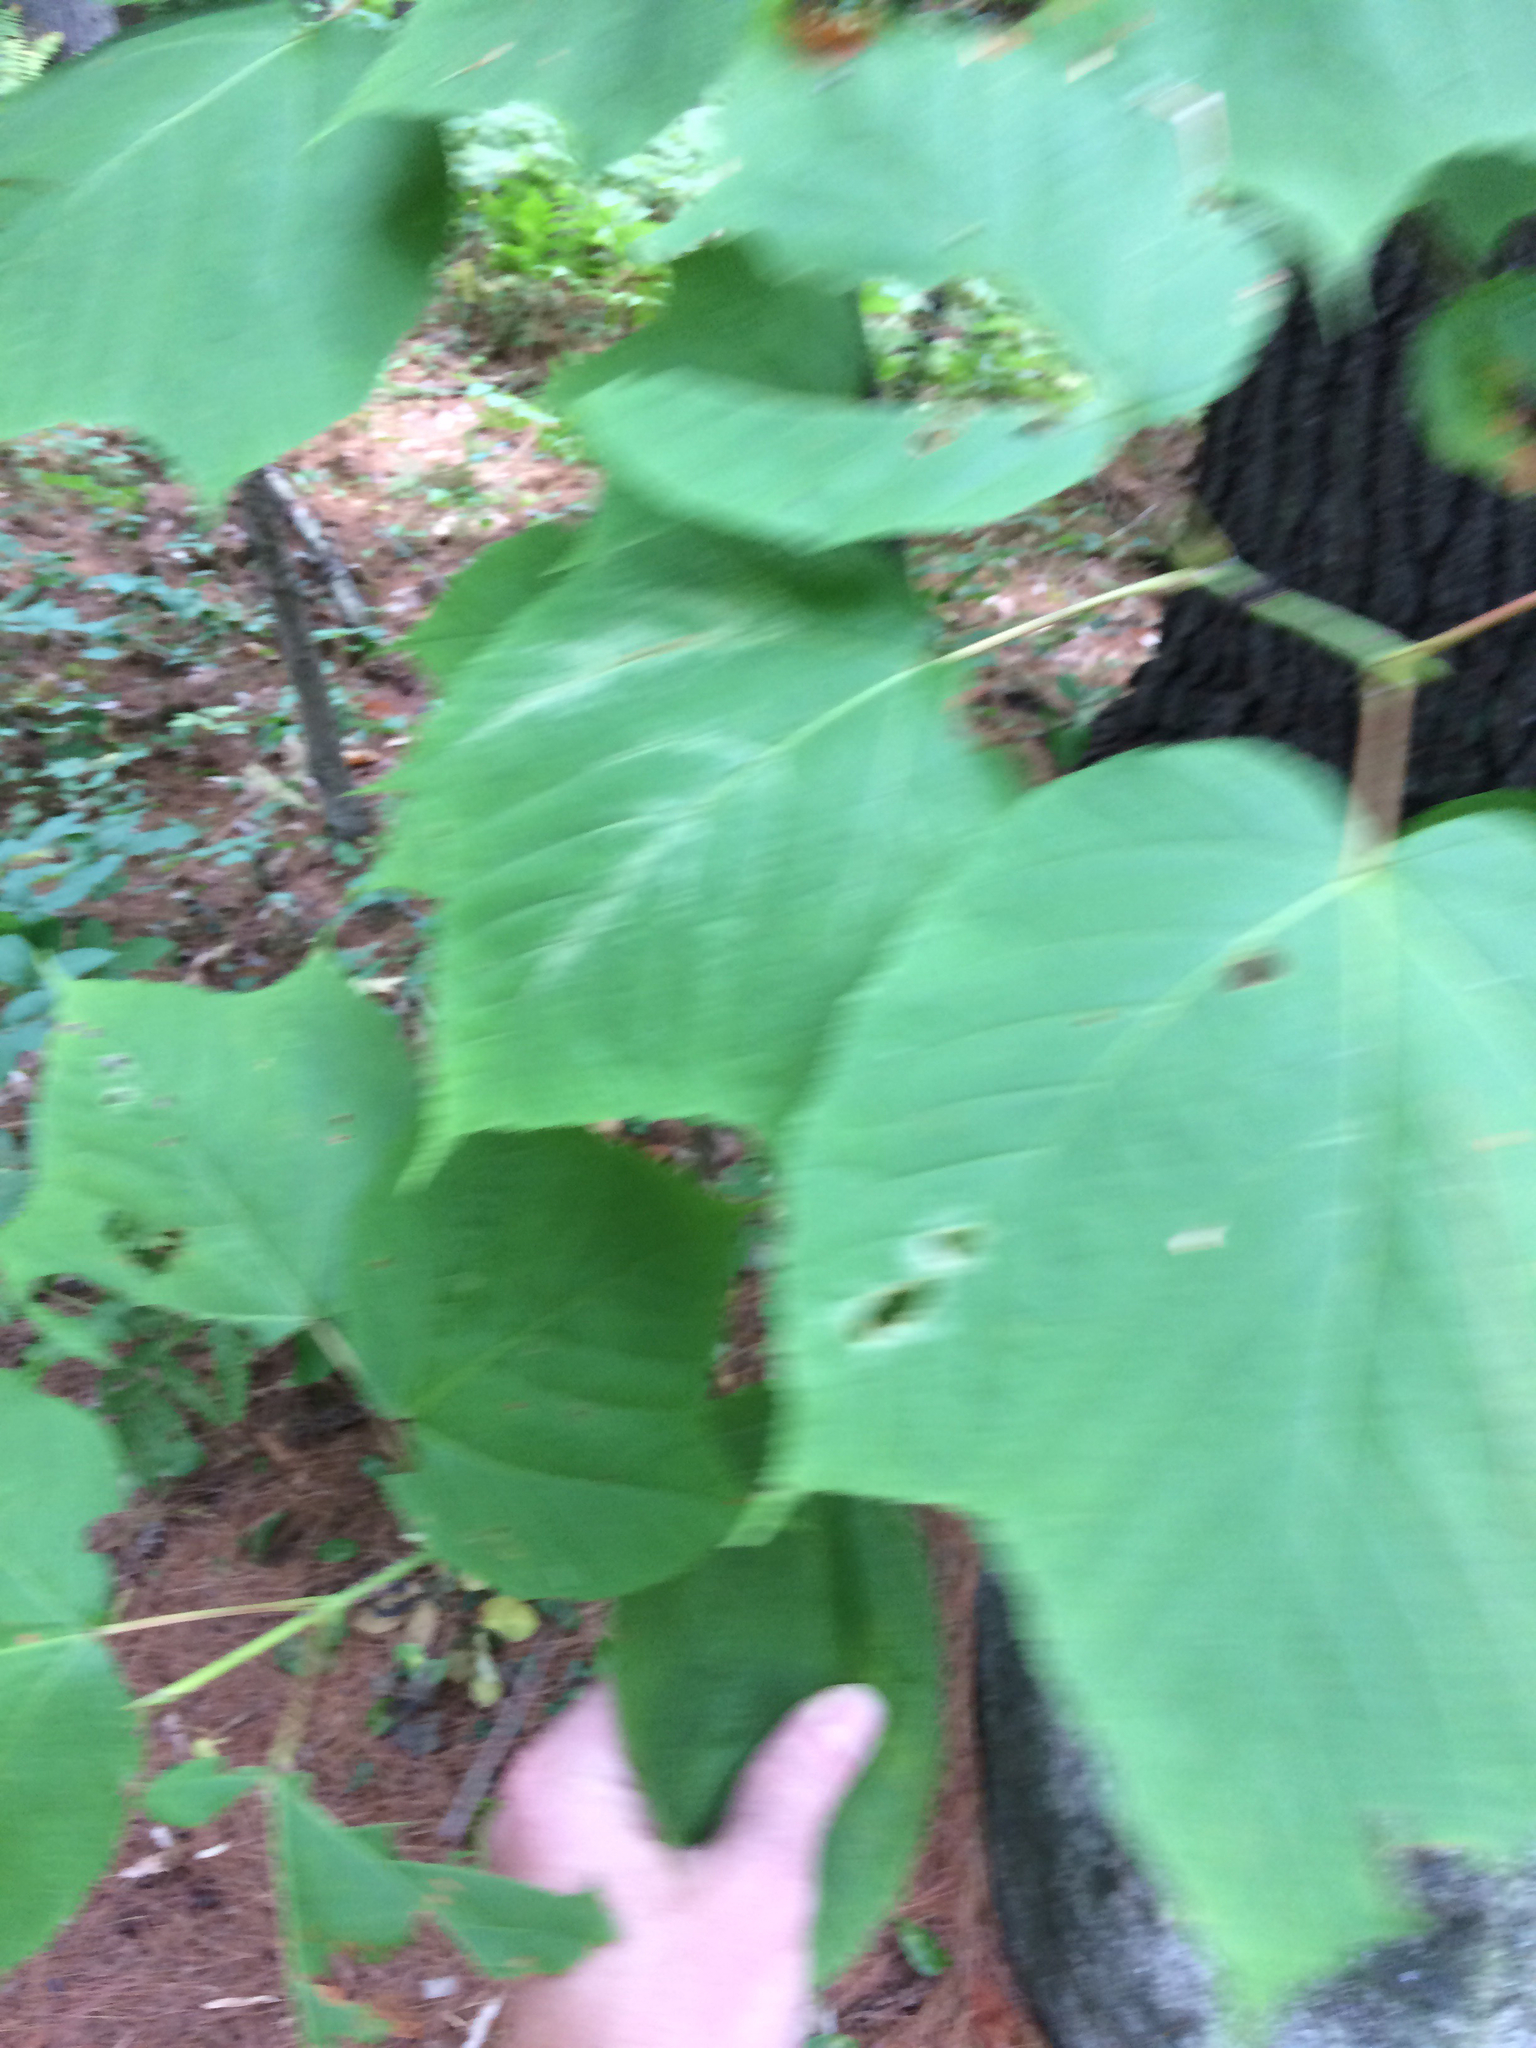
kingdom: Plantae
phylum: Tracheophyta
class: Magnoliopsida
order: Sapindales
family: Sapindaceae
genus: Acer
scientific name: Acer pensylvanicum
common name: Moosewood
